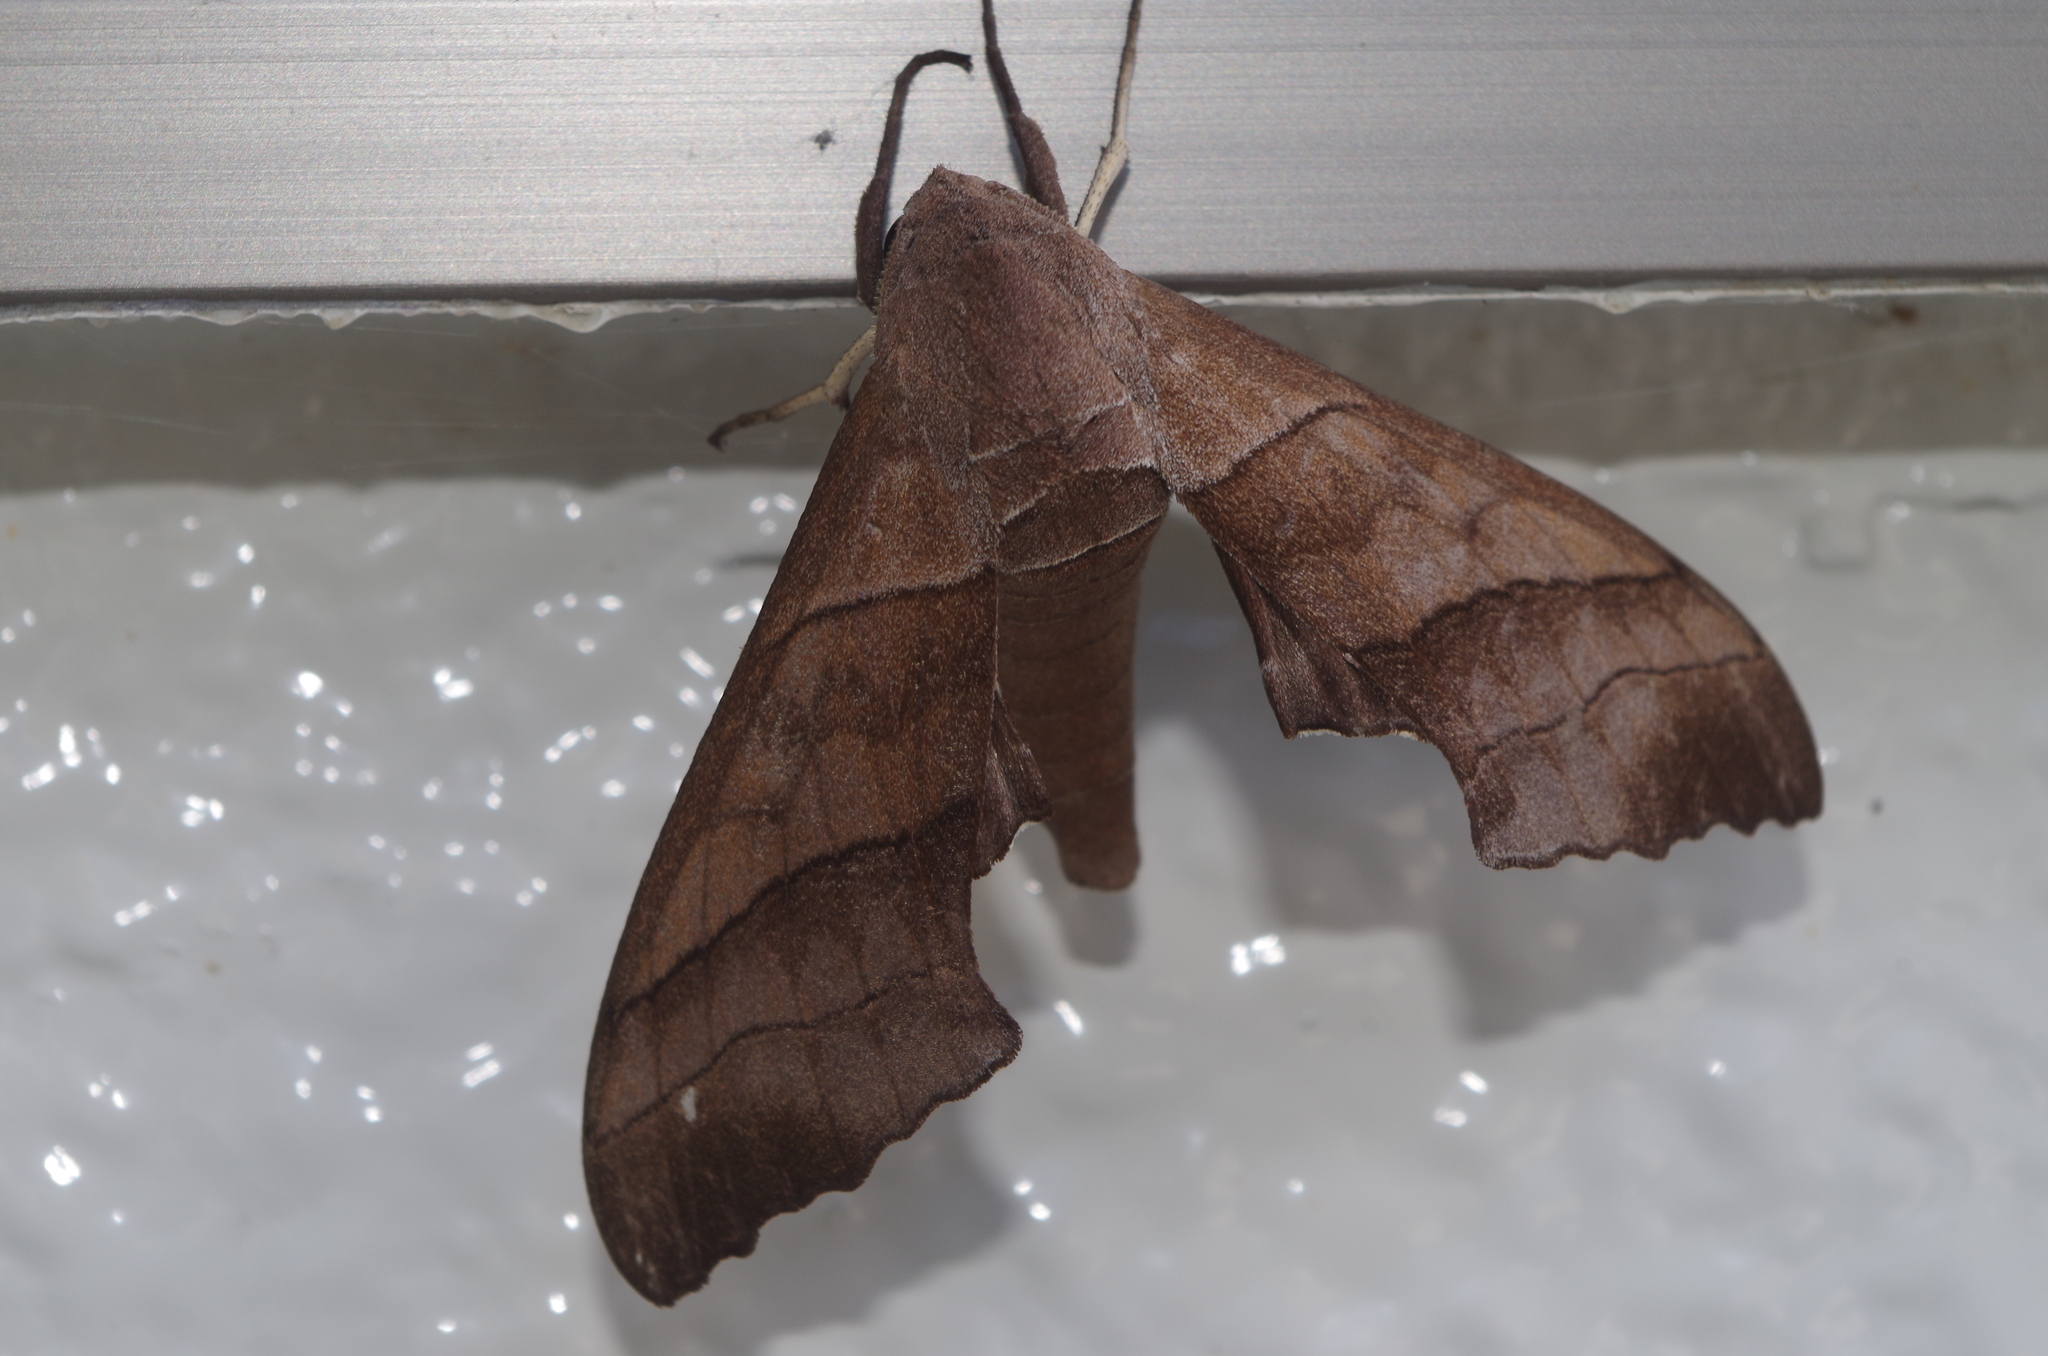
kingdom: Animalia
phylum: Arthropoda
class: Insecta
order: Lepidoptera
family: Sphingidae
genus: Polyptychus
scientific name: Polyptychus chinensis
